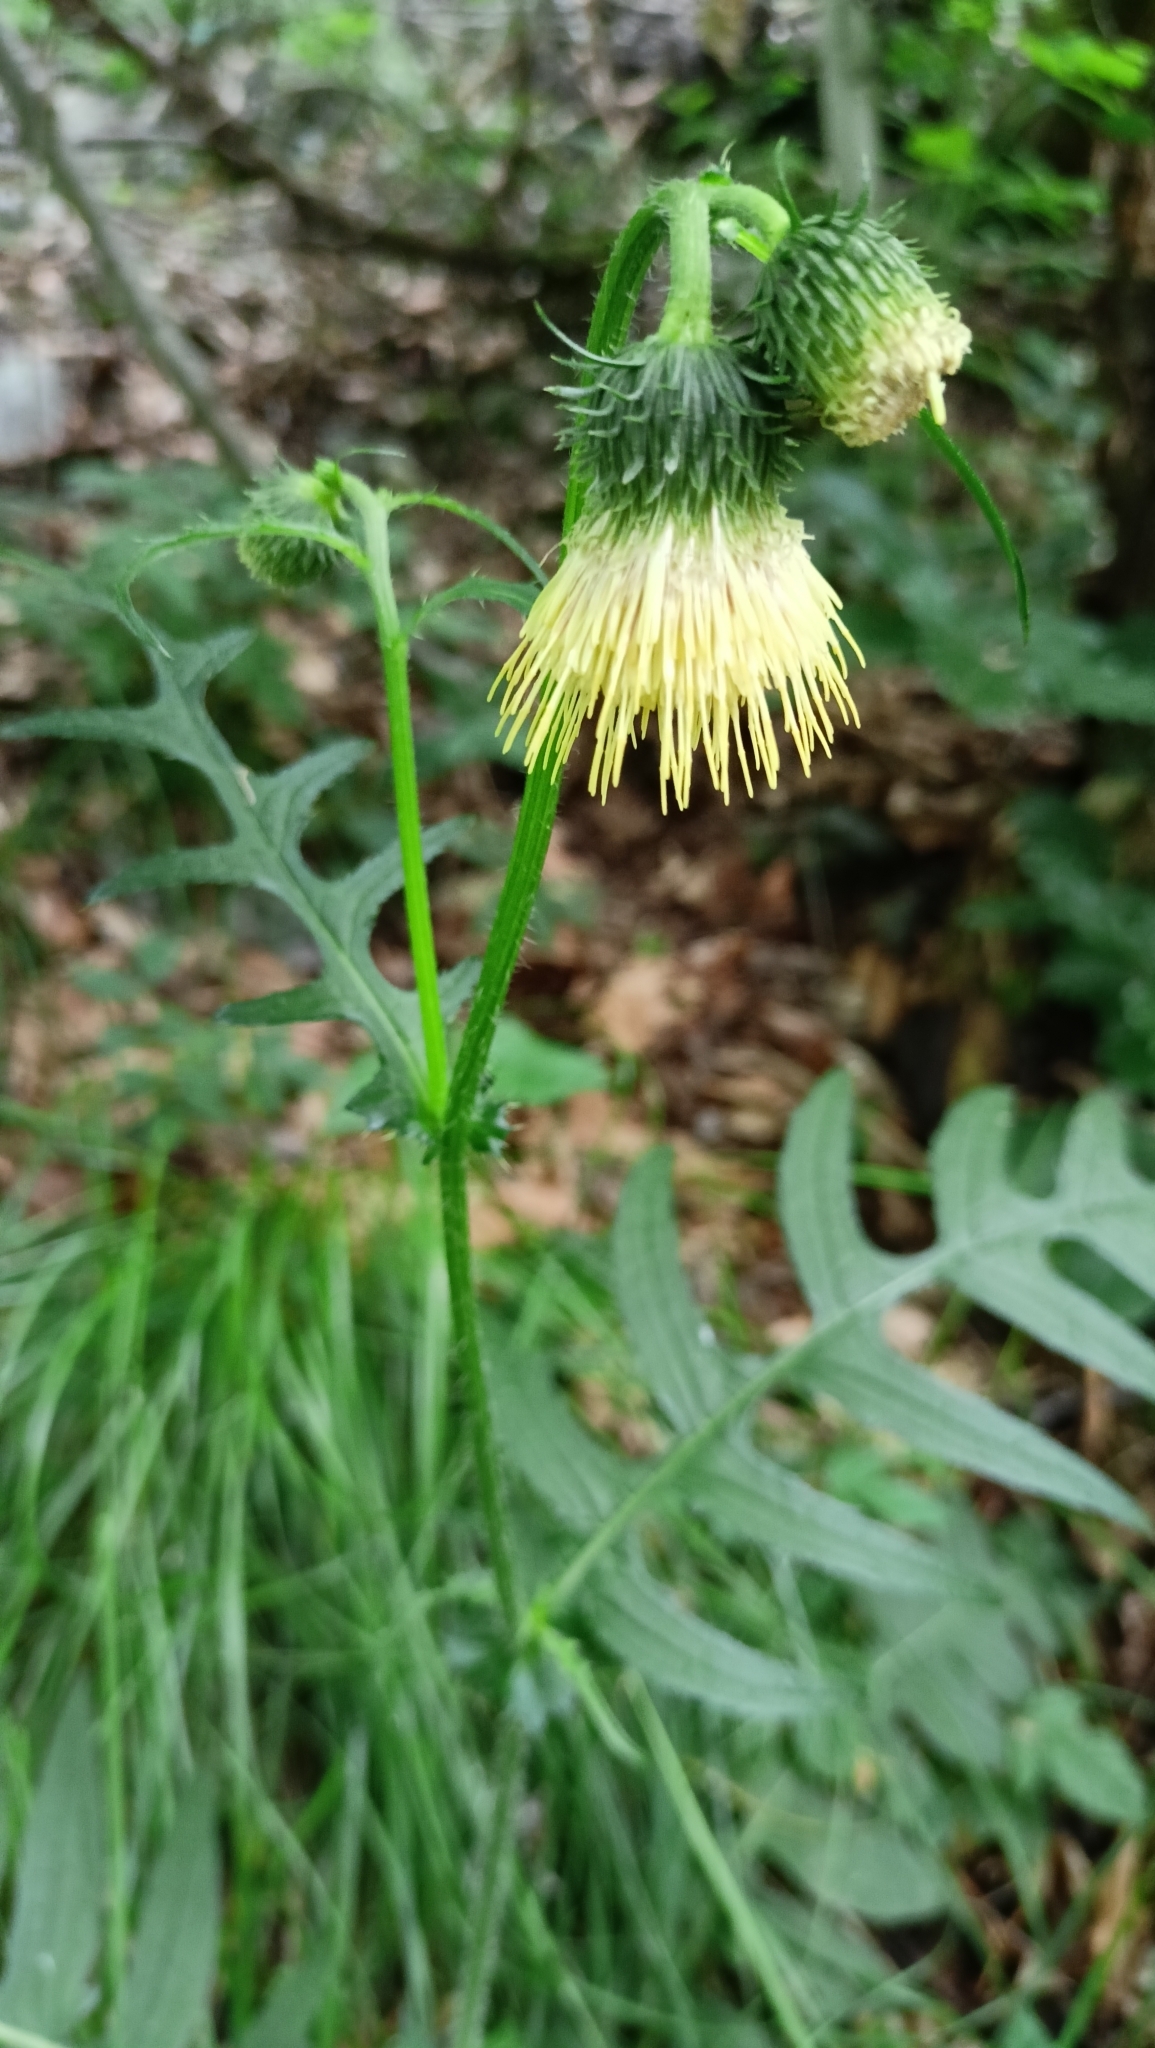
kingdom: Plantae
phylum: Tracheophyta
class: Magnoliopsida
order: Asterales
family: Asteraceae
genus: Cirsium
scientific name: Cirsium erisithales
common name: Yellow thistle
